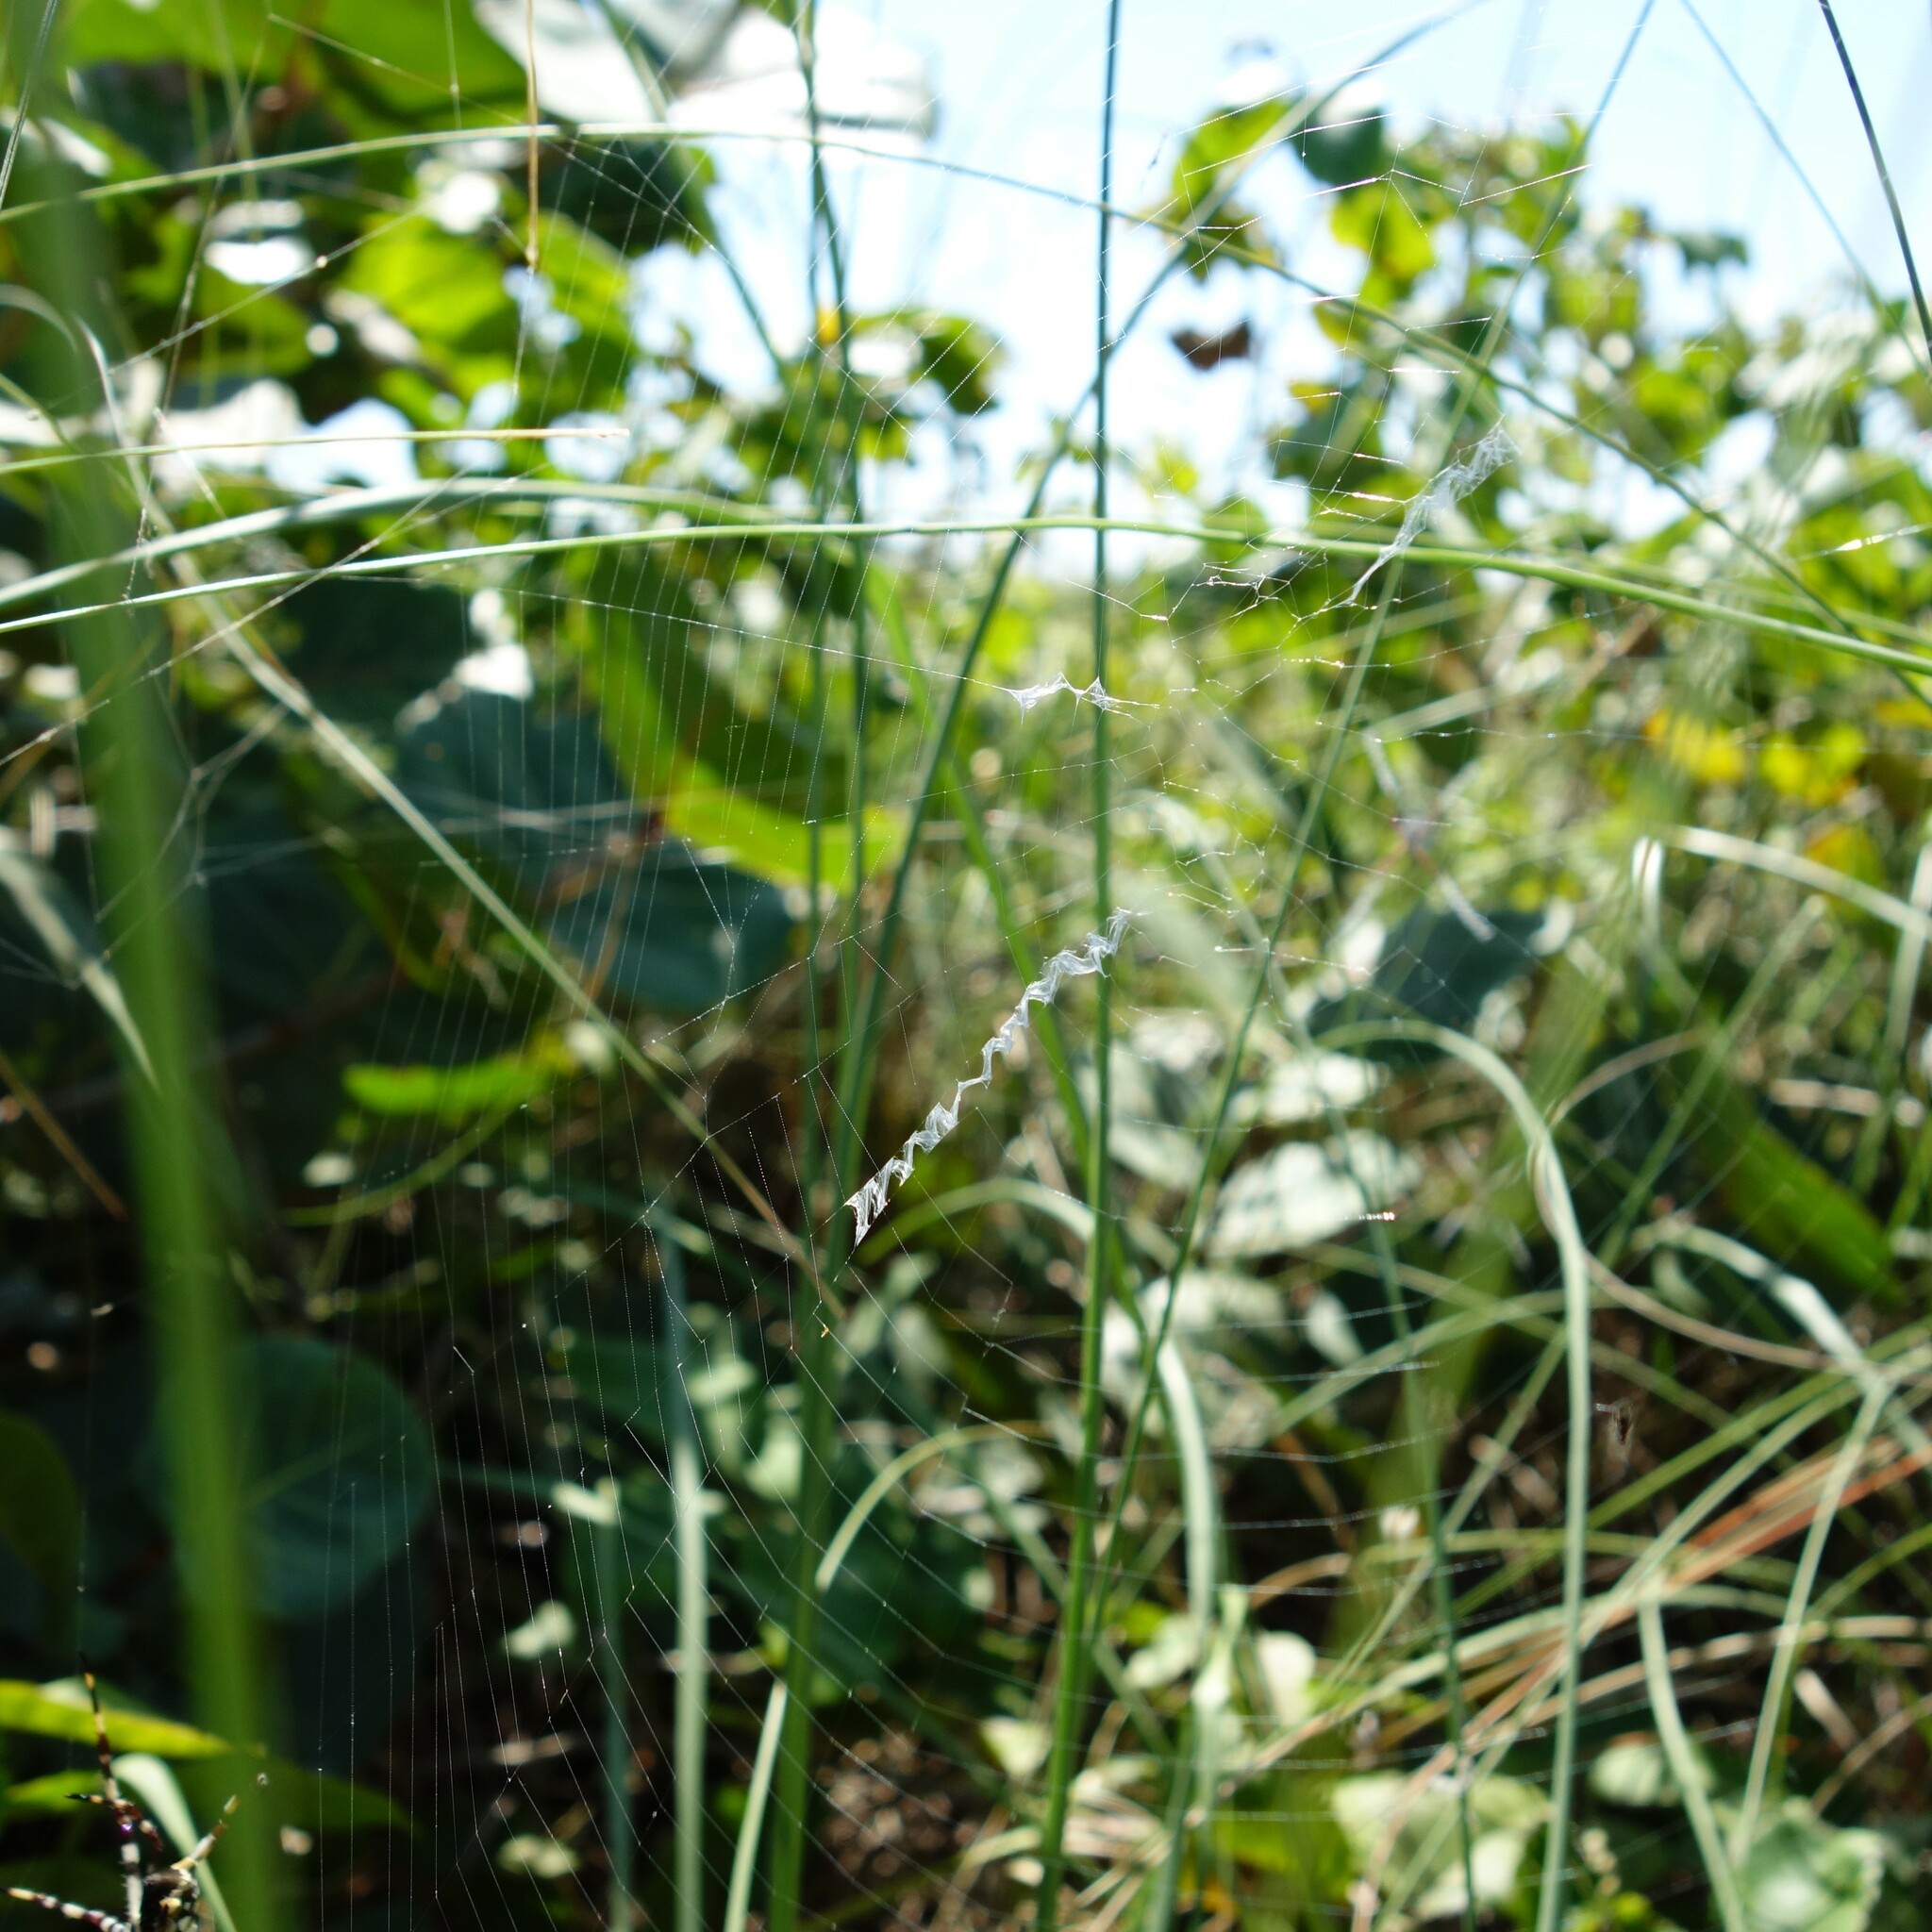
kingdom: Animalia
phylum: Arthropoda
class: Arachnida
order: Araneae
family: Araneidae
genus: Argiope
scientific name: Argiope argentata
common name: Orb weavers
